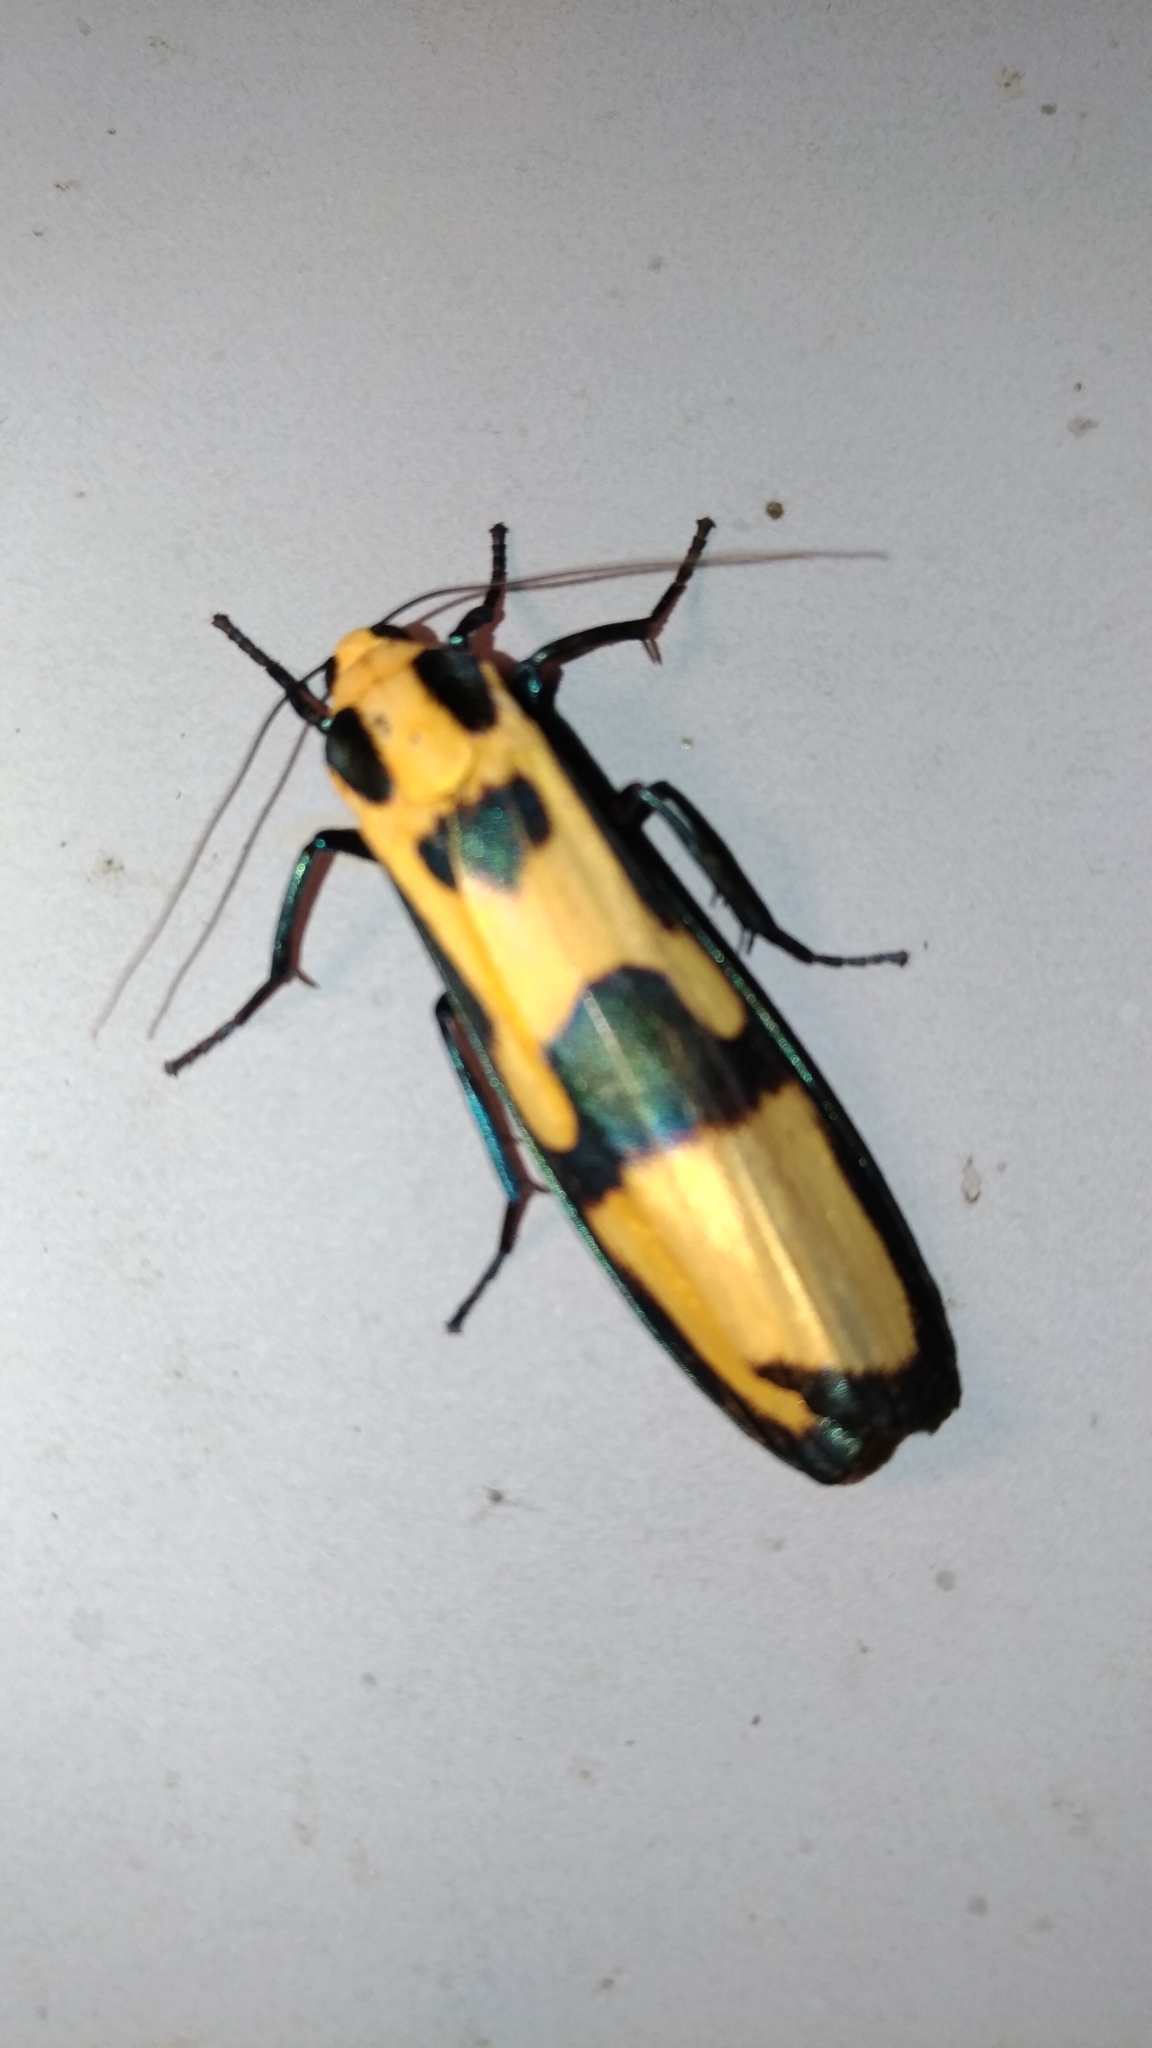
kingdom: Animalia
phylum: Arthropoda
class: Insecta
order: Lepidoptera
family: Erebidae
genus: Chrysaeglia
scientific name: Chrysaeglia magnifica
